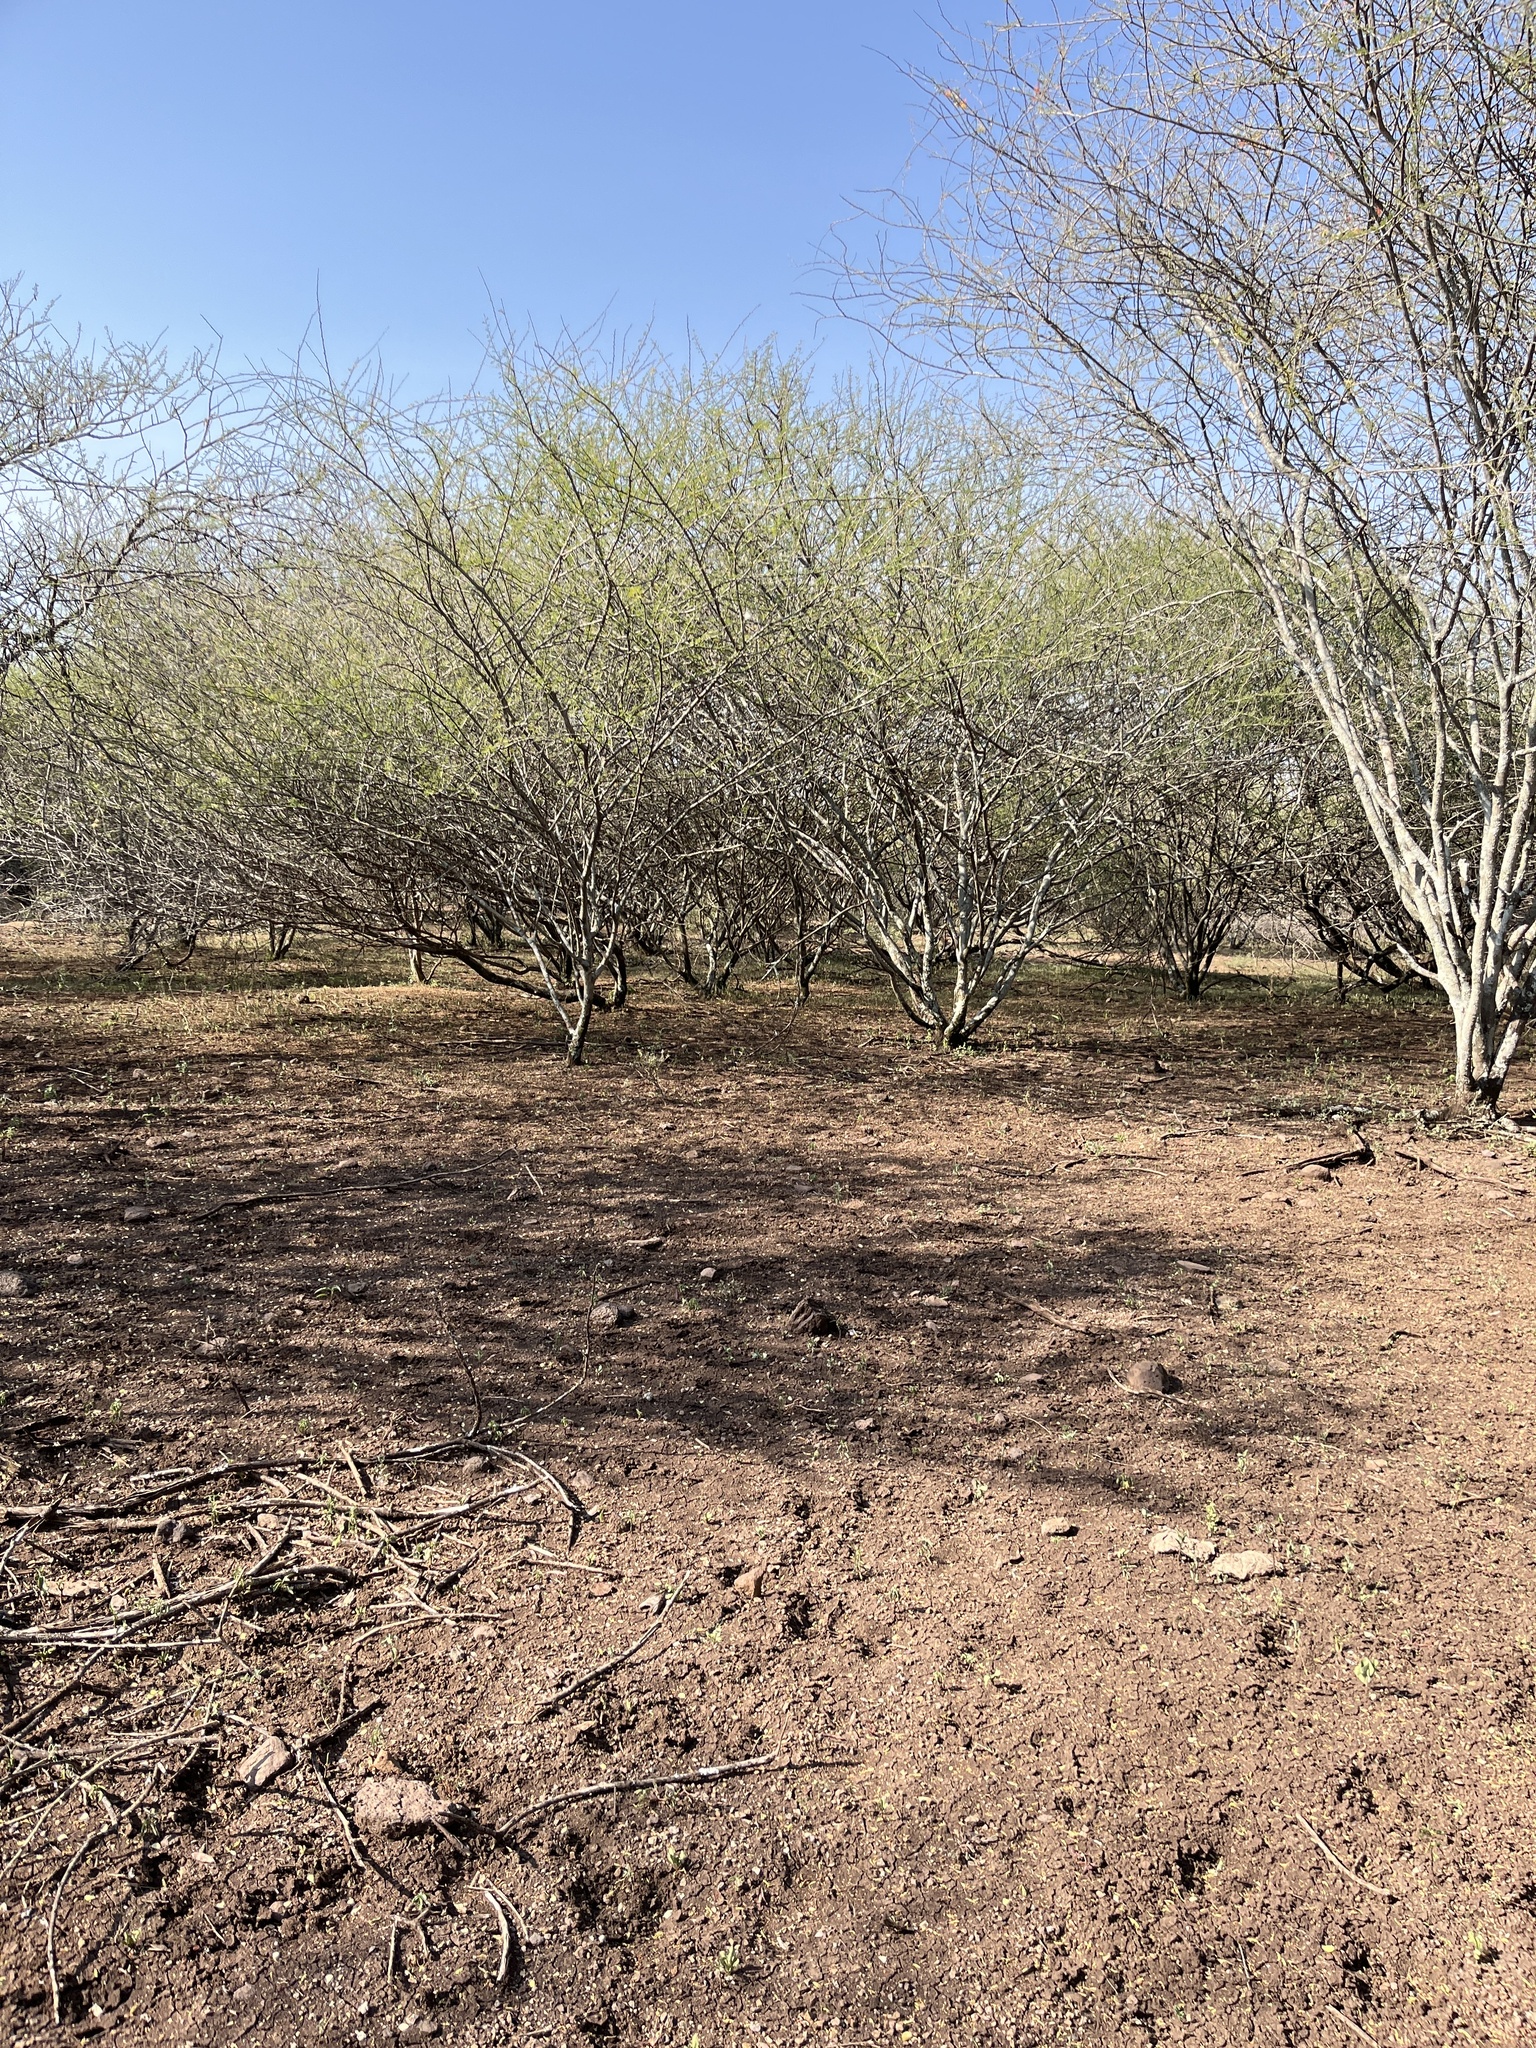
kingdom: Plantae
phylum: Tracheophyta
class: Magnoliopsida
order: Fabales
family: Fabaceae
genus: Vachellia
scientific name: Vachellia tortilis
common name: Umbrella thorn acacia
